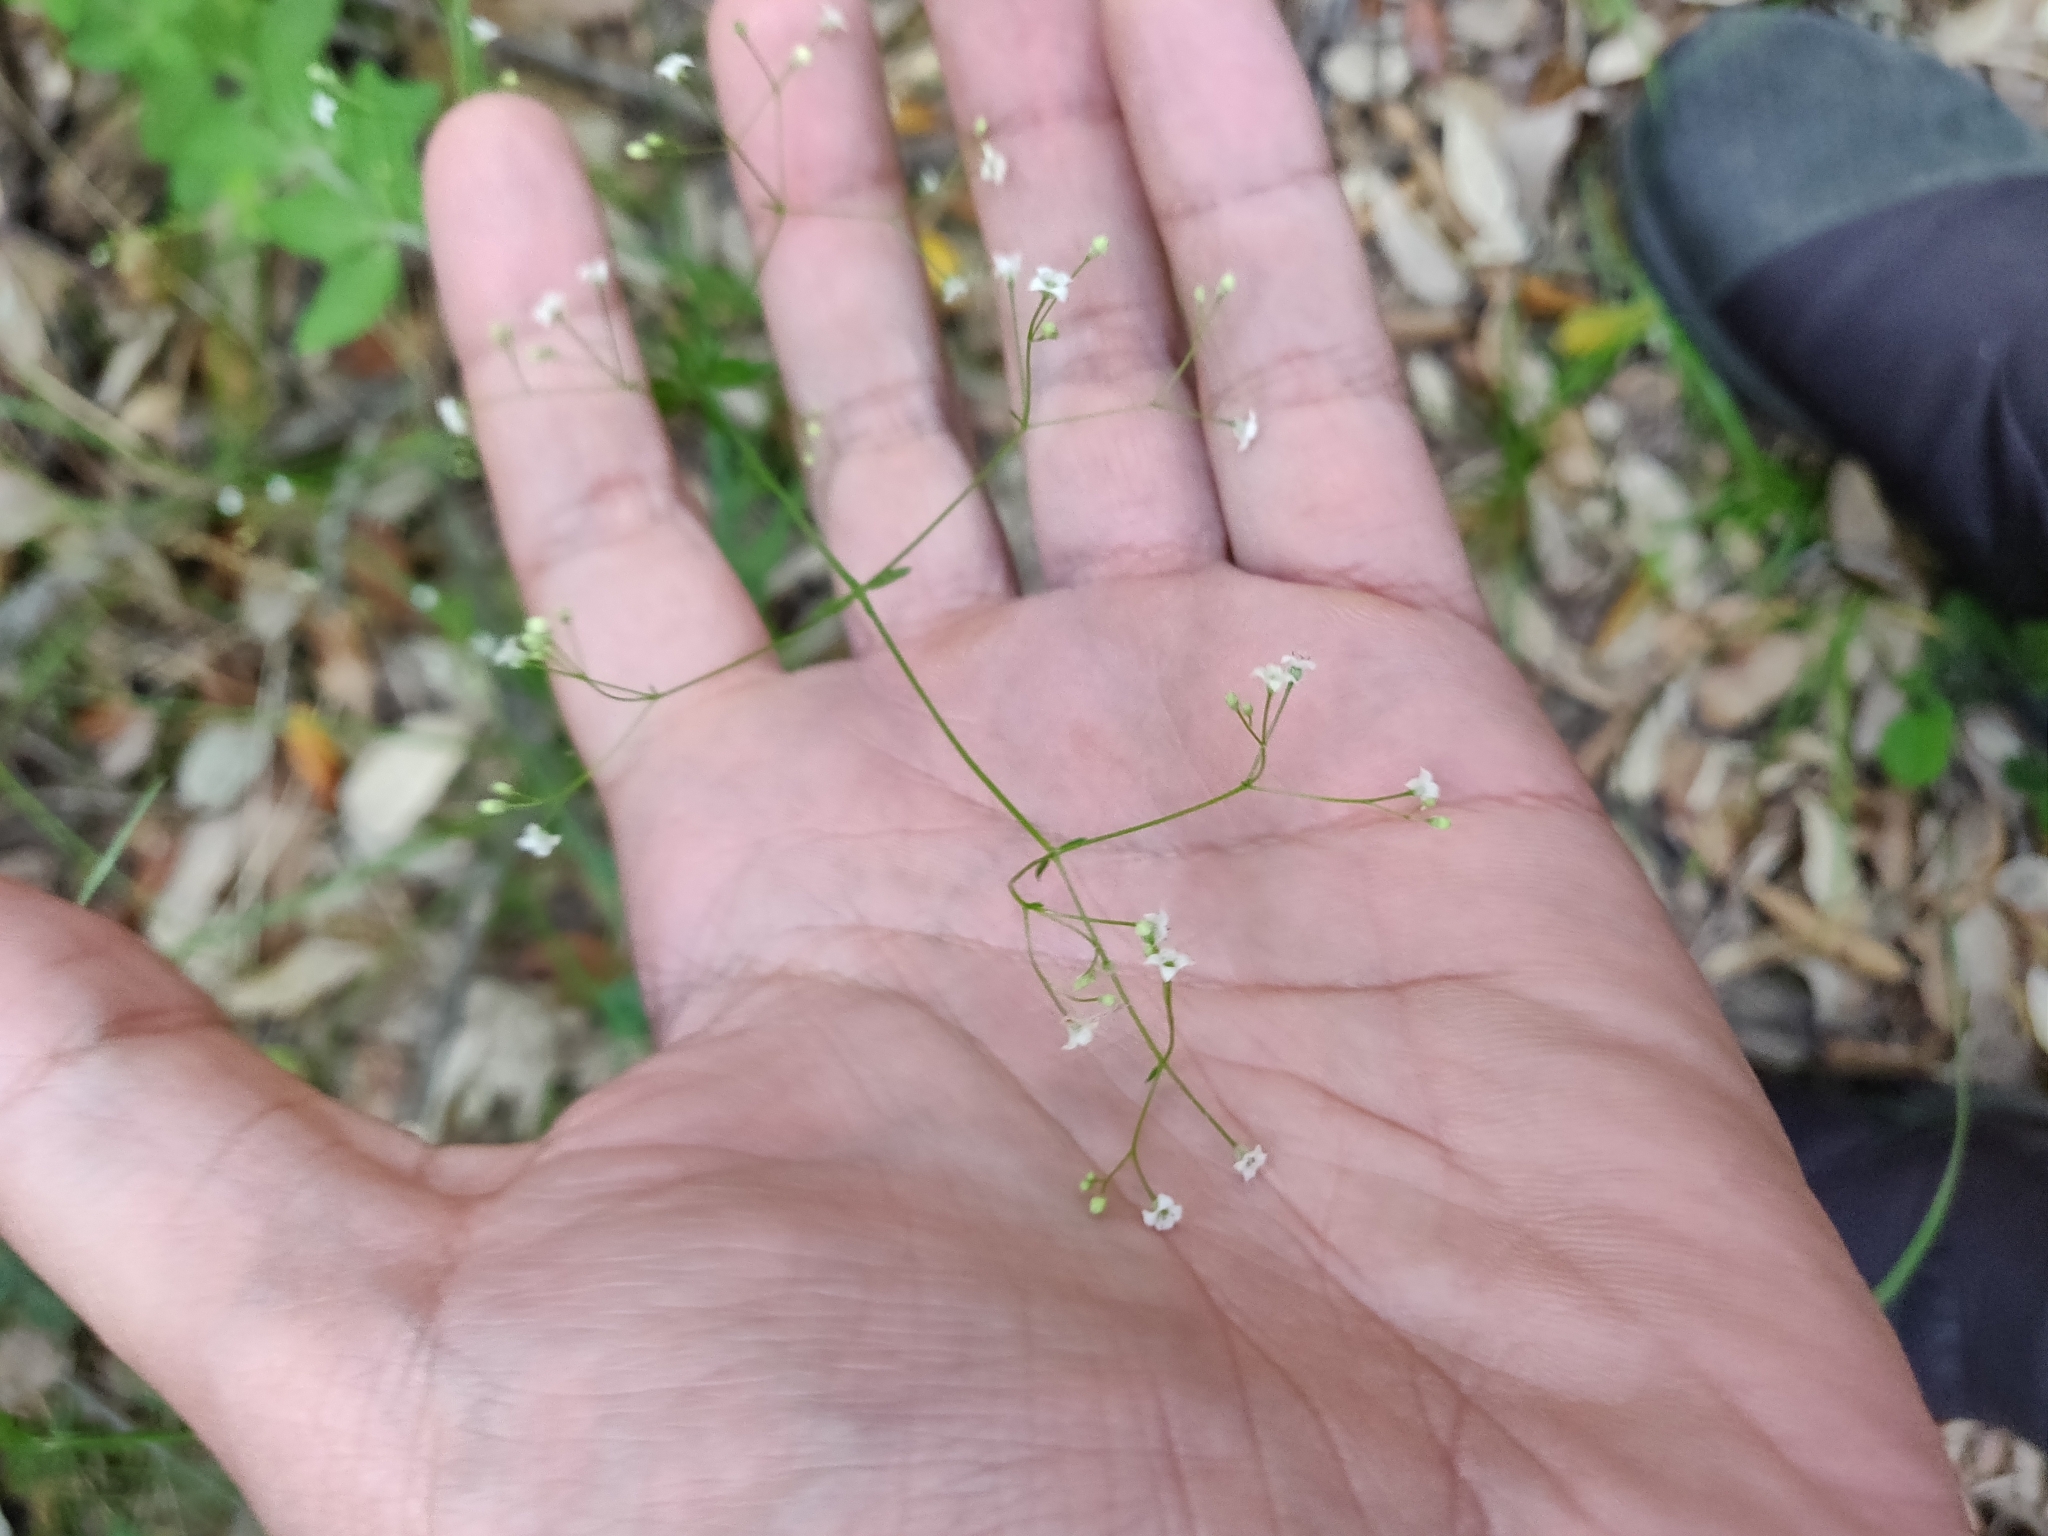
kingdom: Plantae
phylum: Tracheophyta
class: Magnoliopsida
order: Gentianales
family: Rubiaceae
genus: Galium
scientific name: Galium rotundifolium
